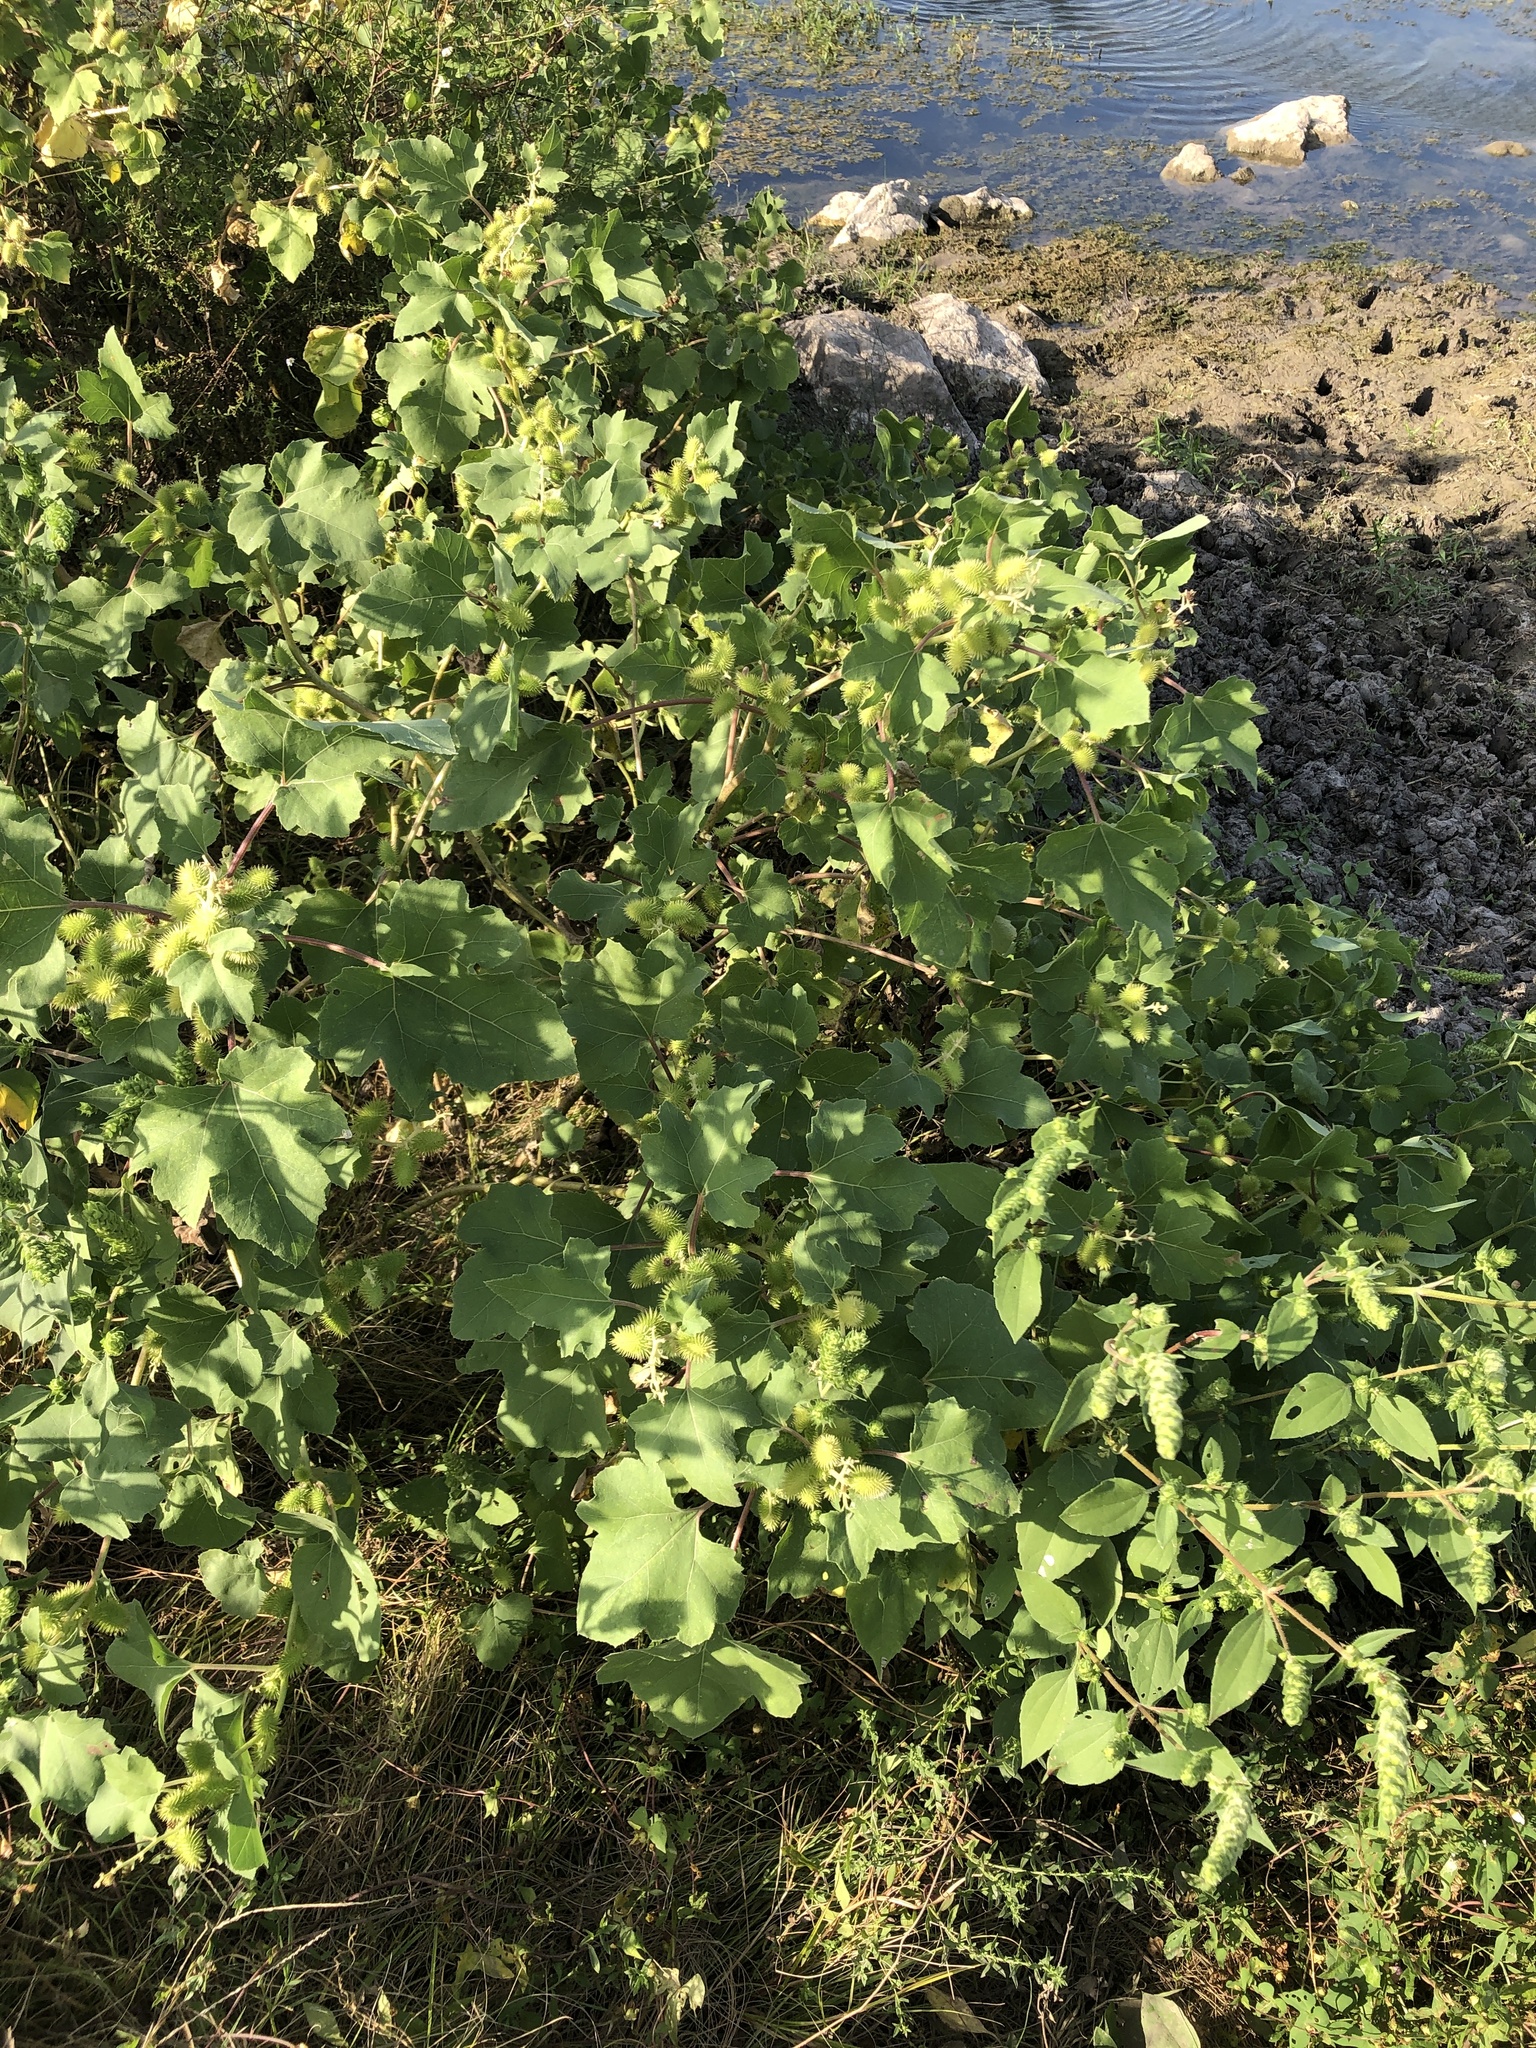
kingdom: Plantae
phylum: Tracheophyta
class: Magnoliopsida
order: Asterales
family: Asteraceae
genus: Xanthium
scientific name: Xanthium strumarium
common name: Rough cocklebur
